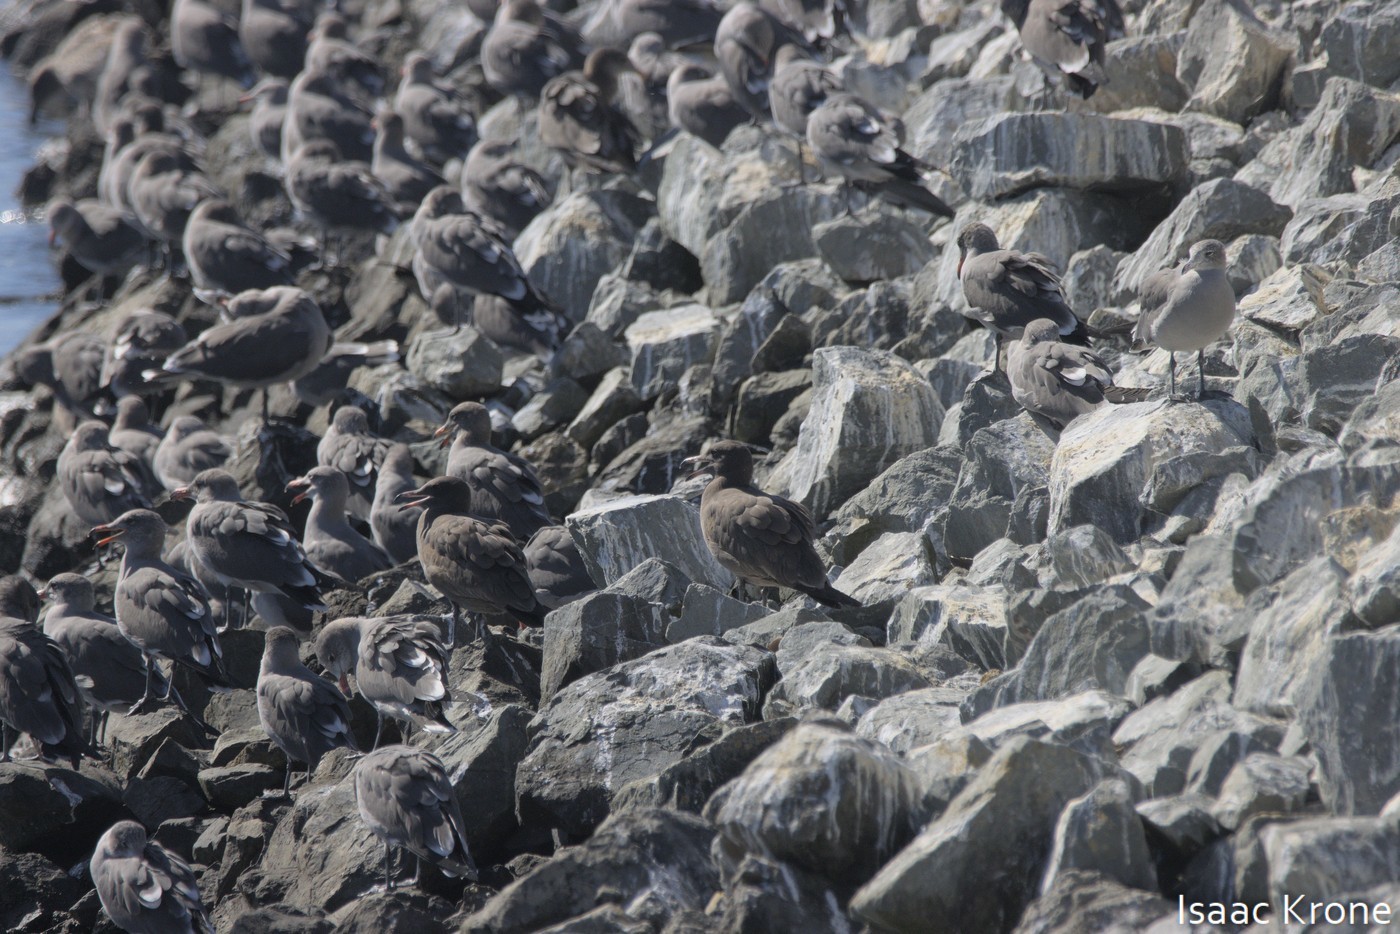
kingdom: Animalia
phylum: Chordata
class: Aves
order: Charadriiformes
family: Laridae
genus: Larus
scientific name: Larus heermanni
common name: Heermann's gull
